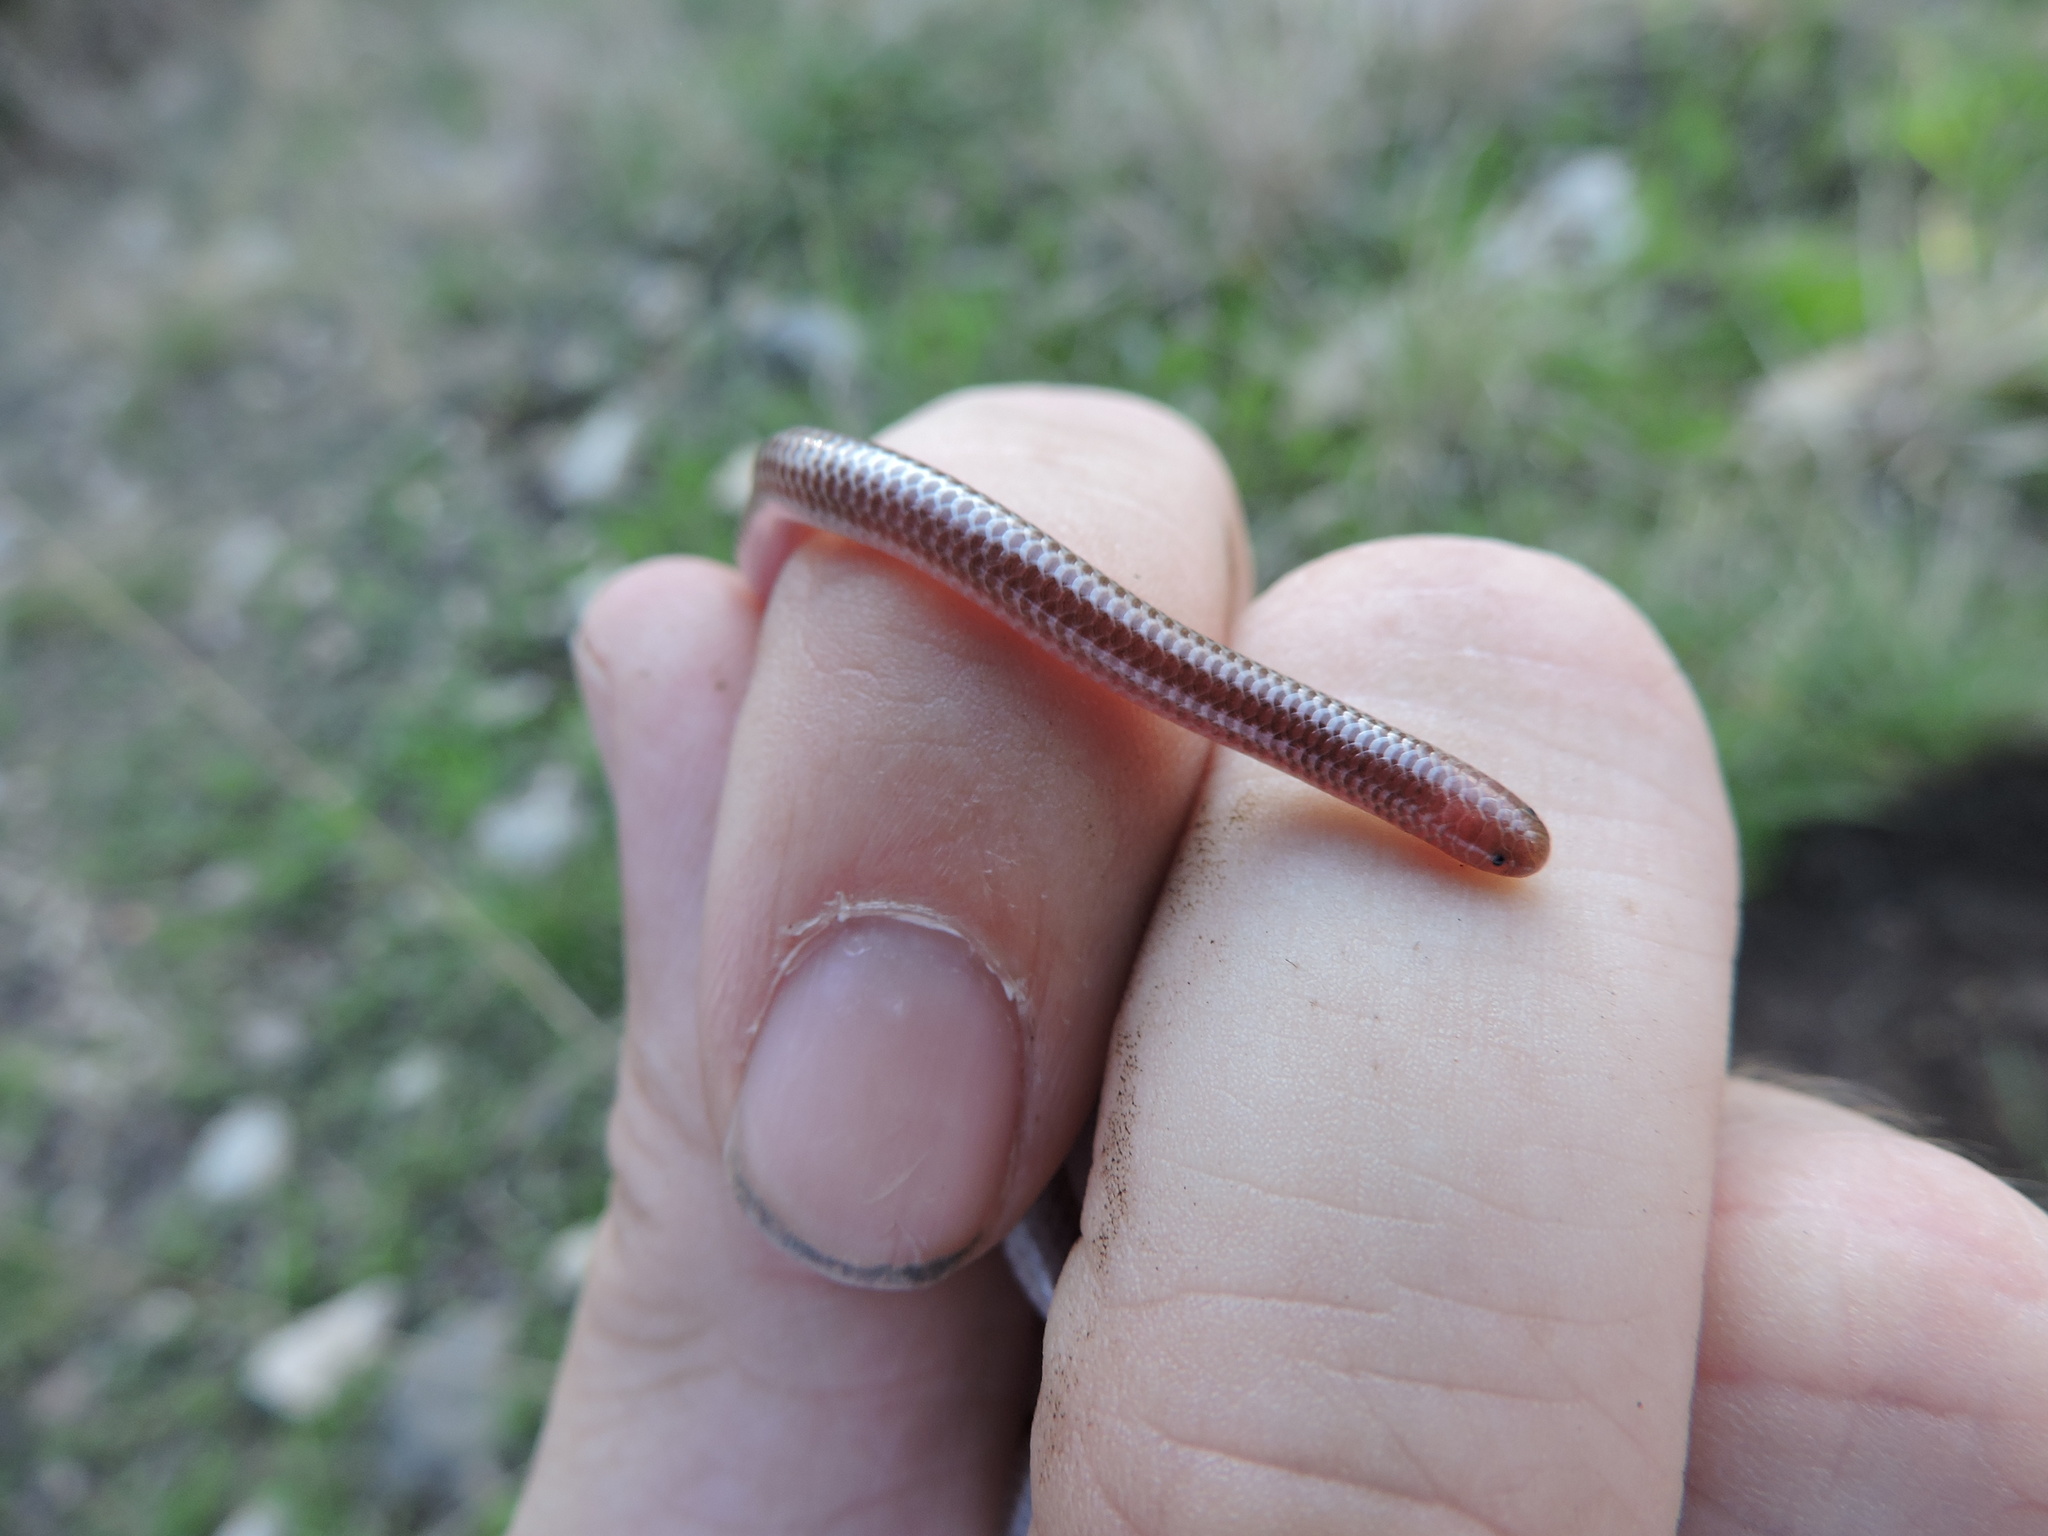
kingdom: Animalia
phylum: Chordata
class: Squamata
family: Leptotyphlopidae
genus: Rena
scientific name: Rena dulcis
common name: Texas blind snake
